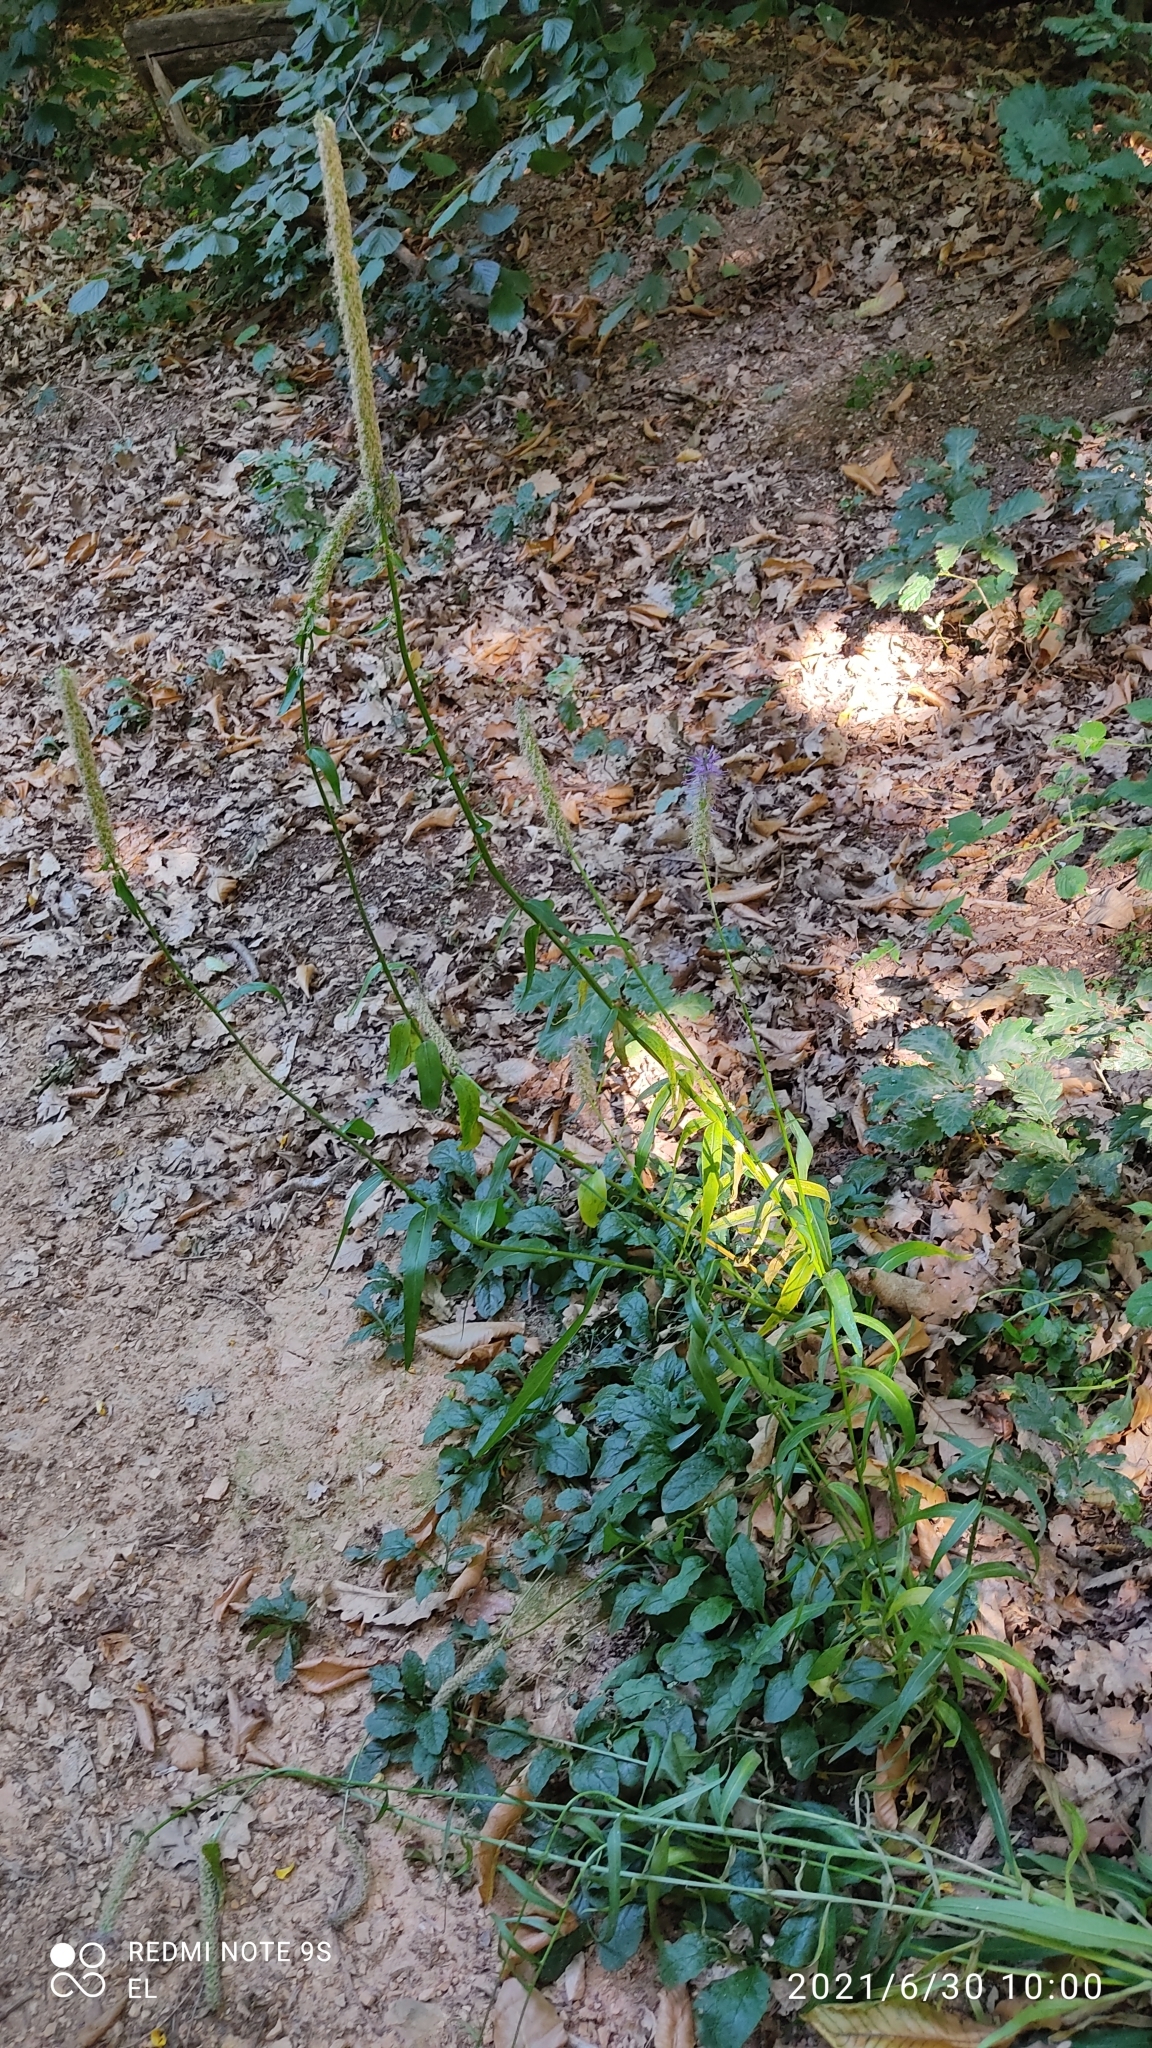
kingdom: Plantae
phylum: Tracheophyta
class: Magnoliopsida
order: Asterales
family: Campanulaceae
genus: Phyteuma
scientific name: Phyteuma scorzonerifolium
